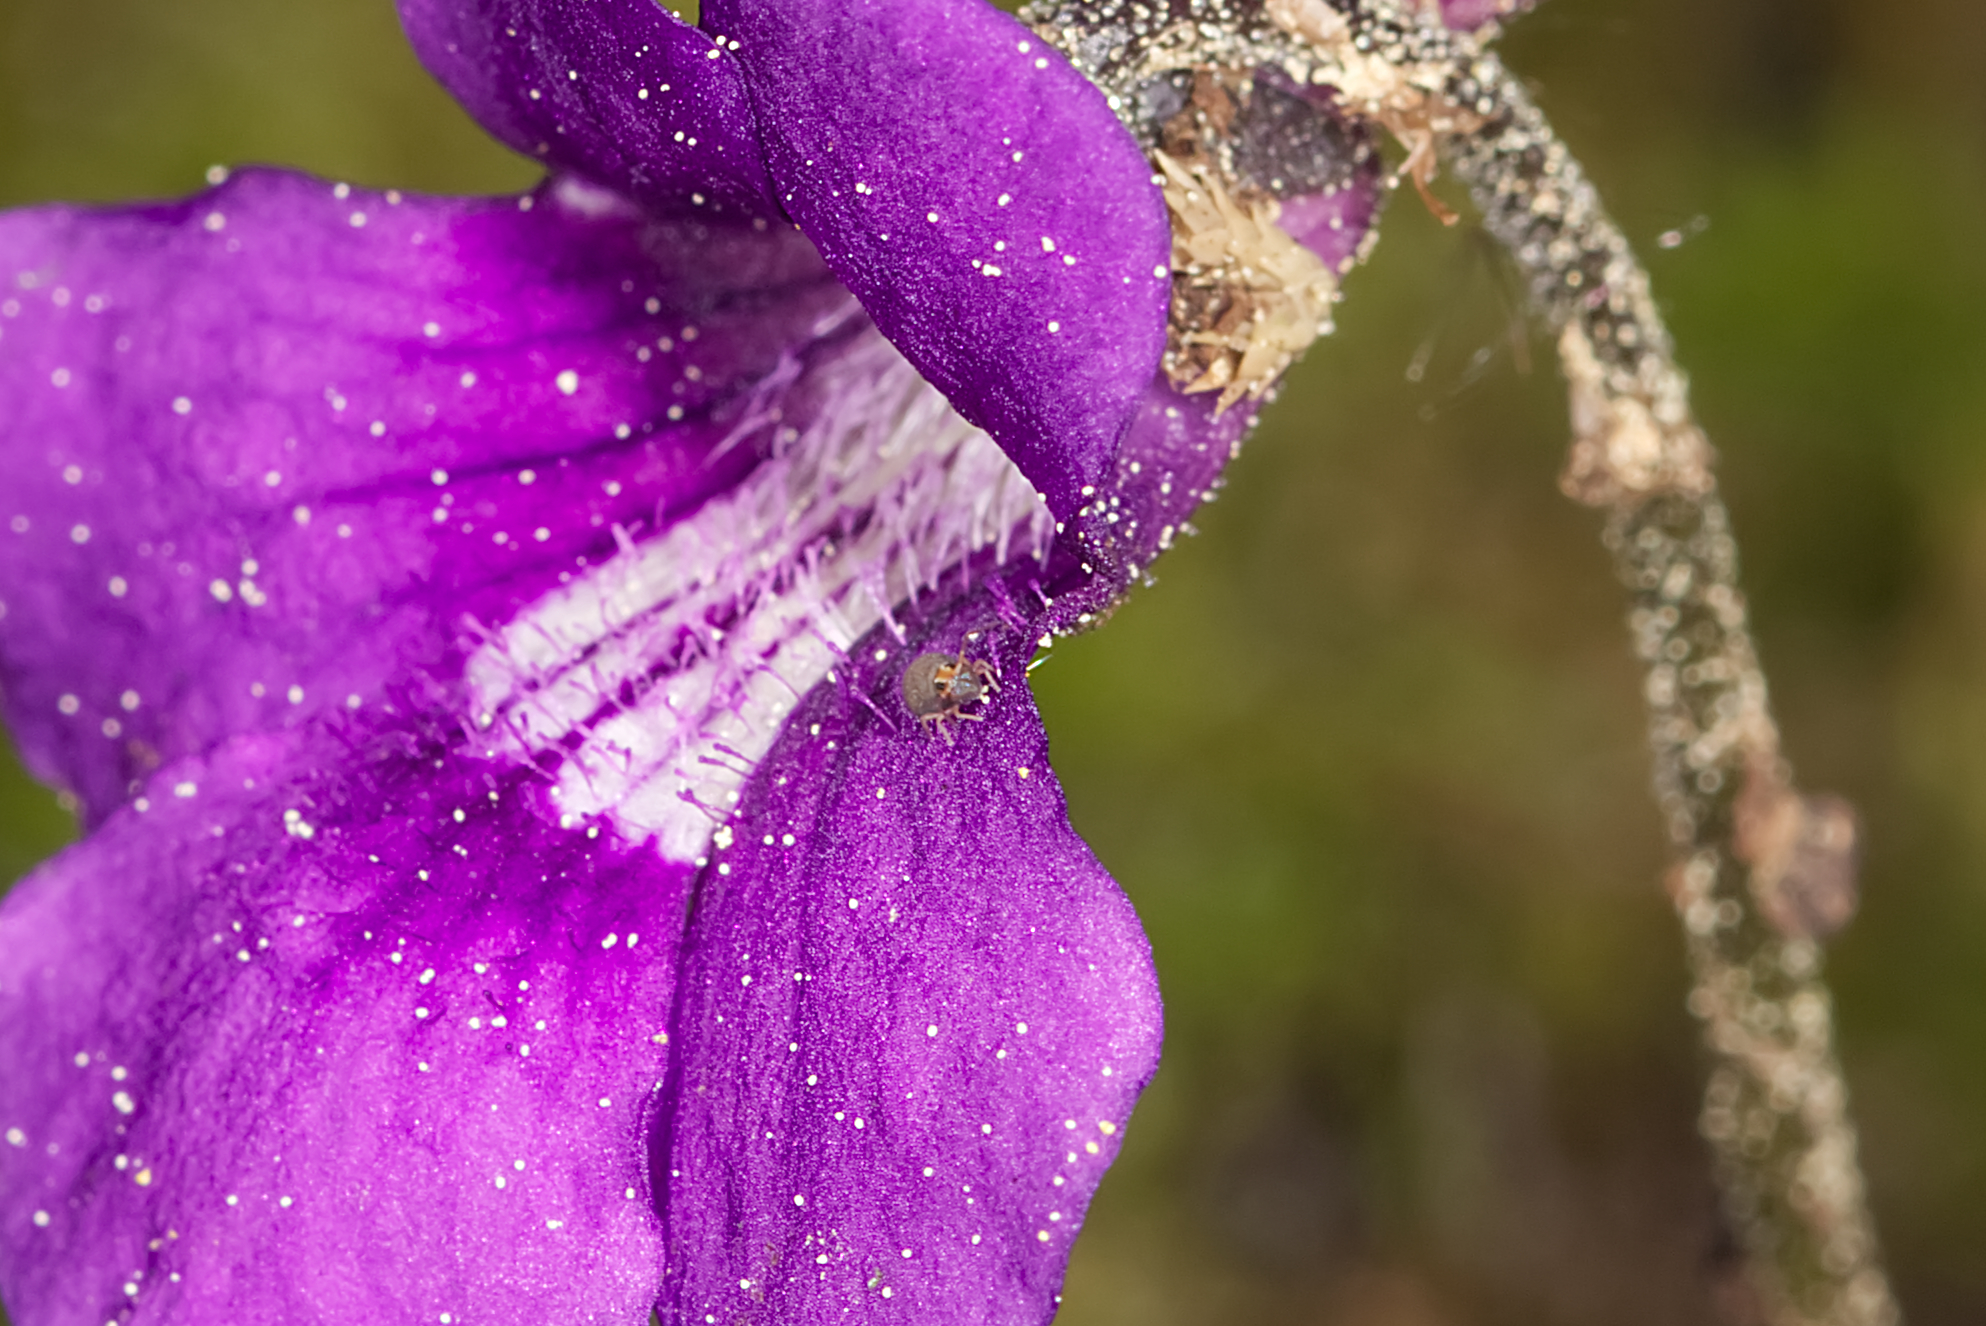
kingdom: Animalia
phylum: Arthropoda
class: Collembola
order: Symphypleona
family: Bourletiellidae
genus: Bourletiella
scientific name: Bourletiella arvalis
